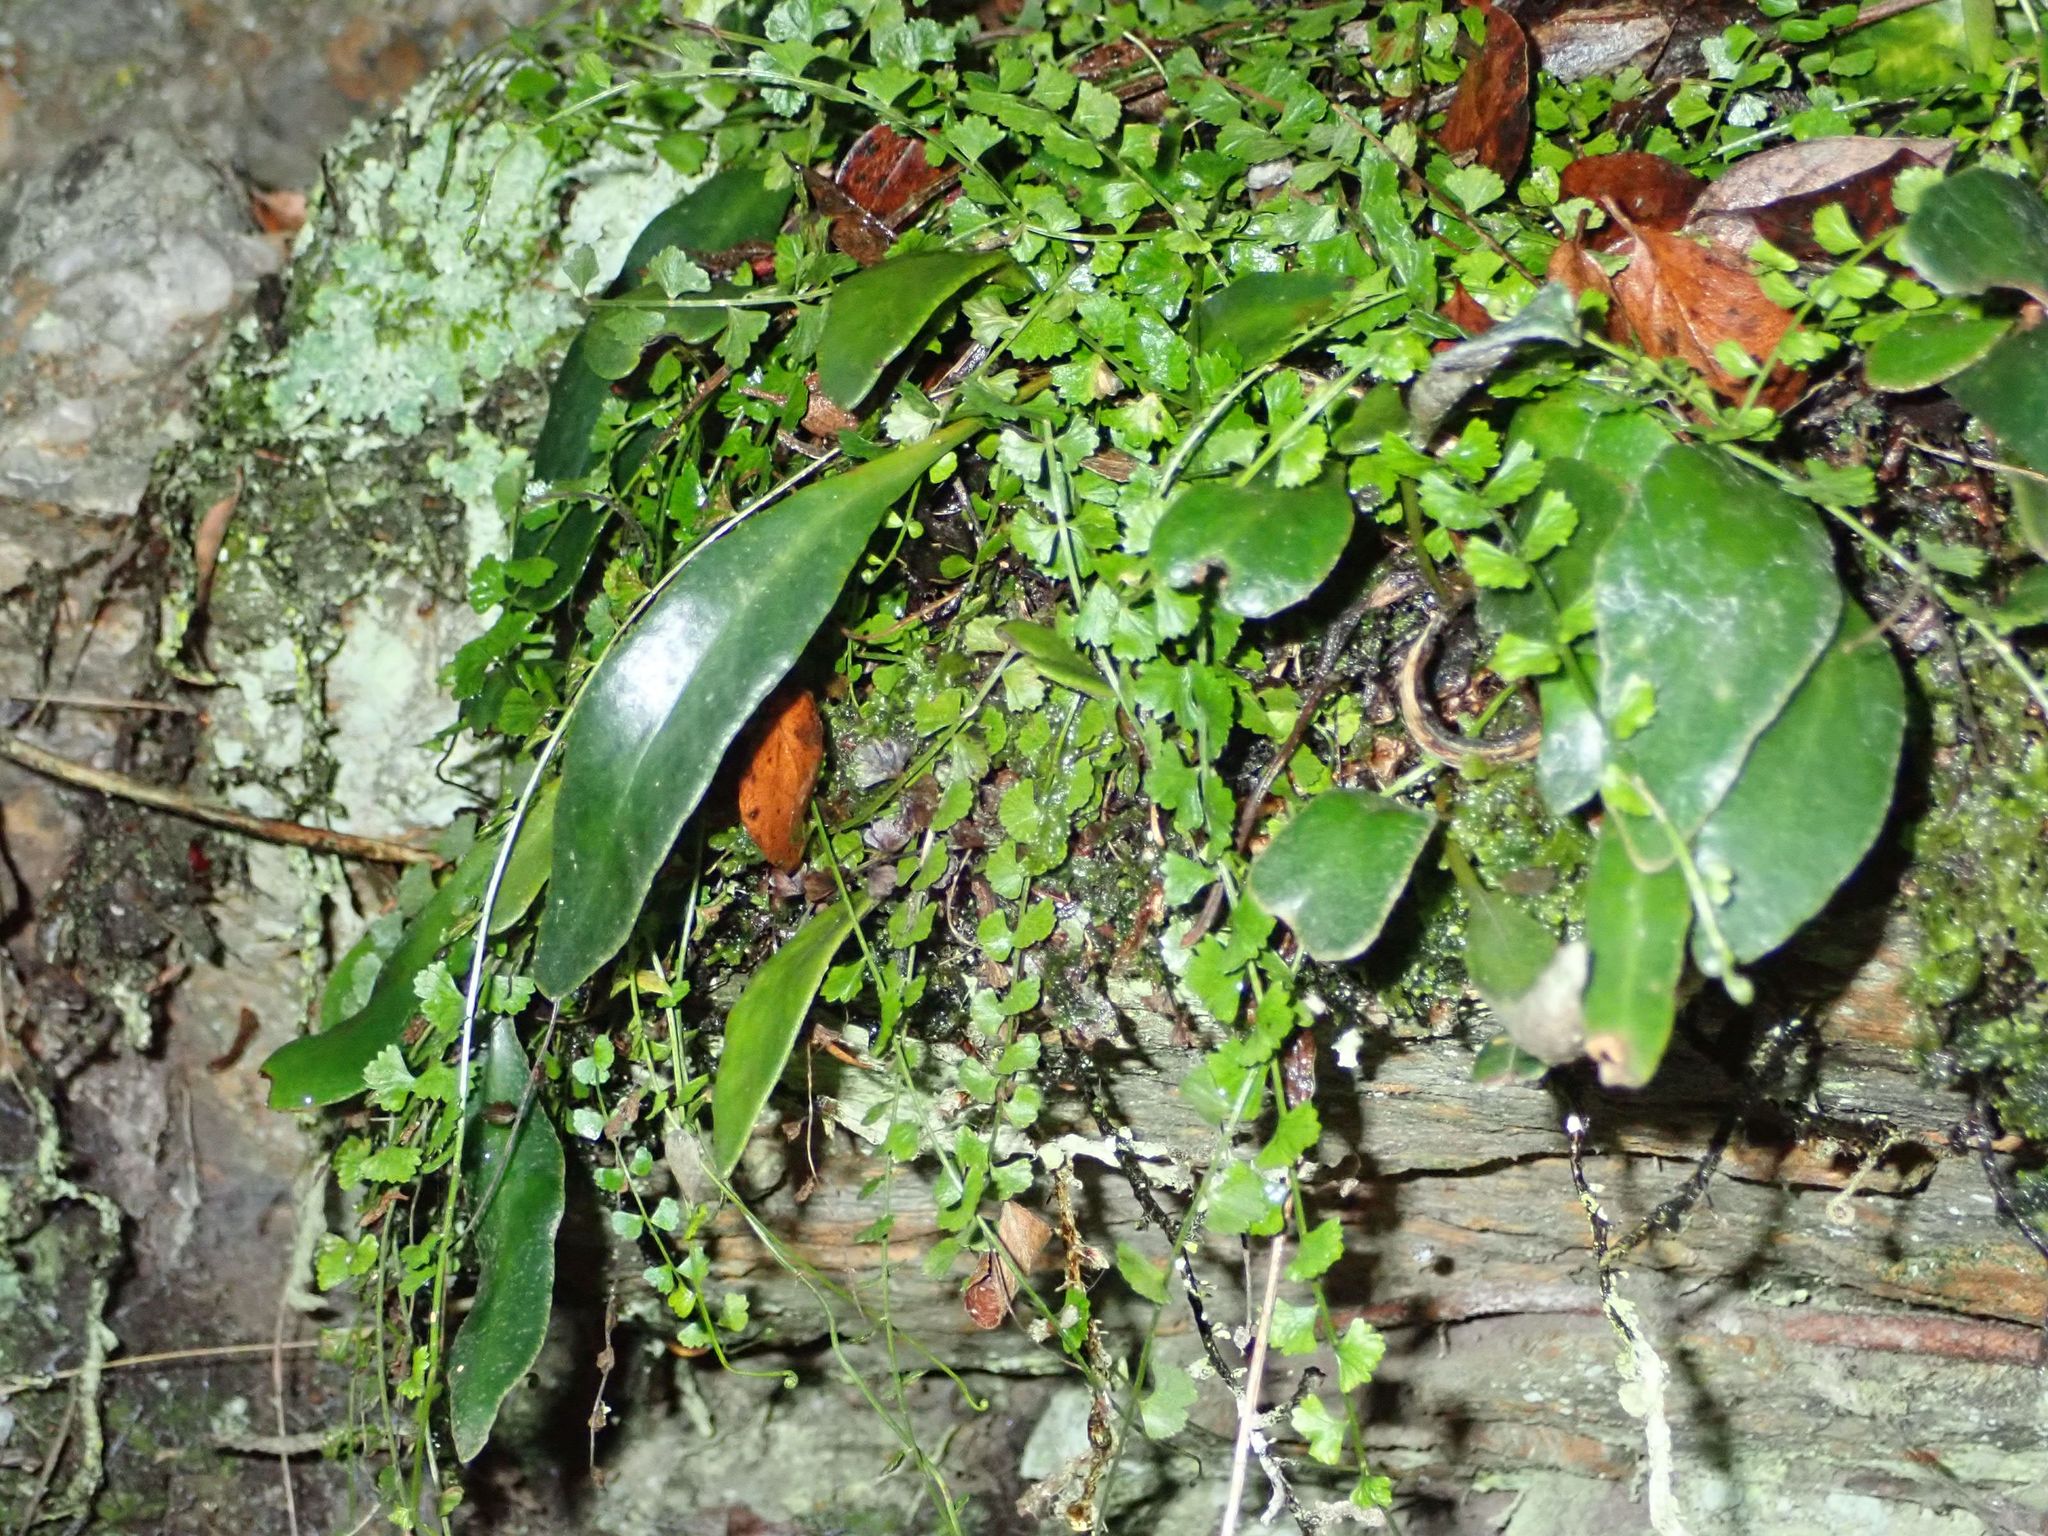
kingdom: Plantae
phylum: Tracheophyta
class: Polypodiopsida
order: Polypodiales
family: Aspleniaceae
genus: Asplenium
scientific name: Asplenium flabellifolium
